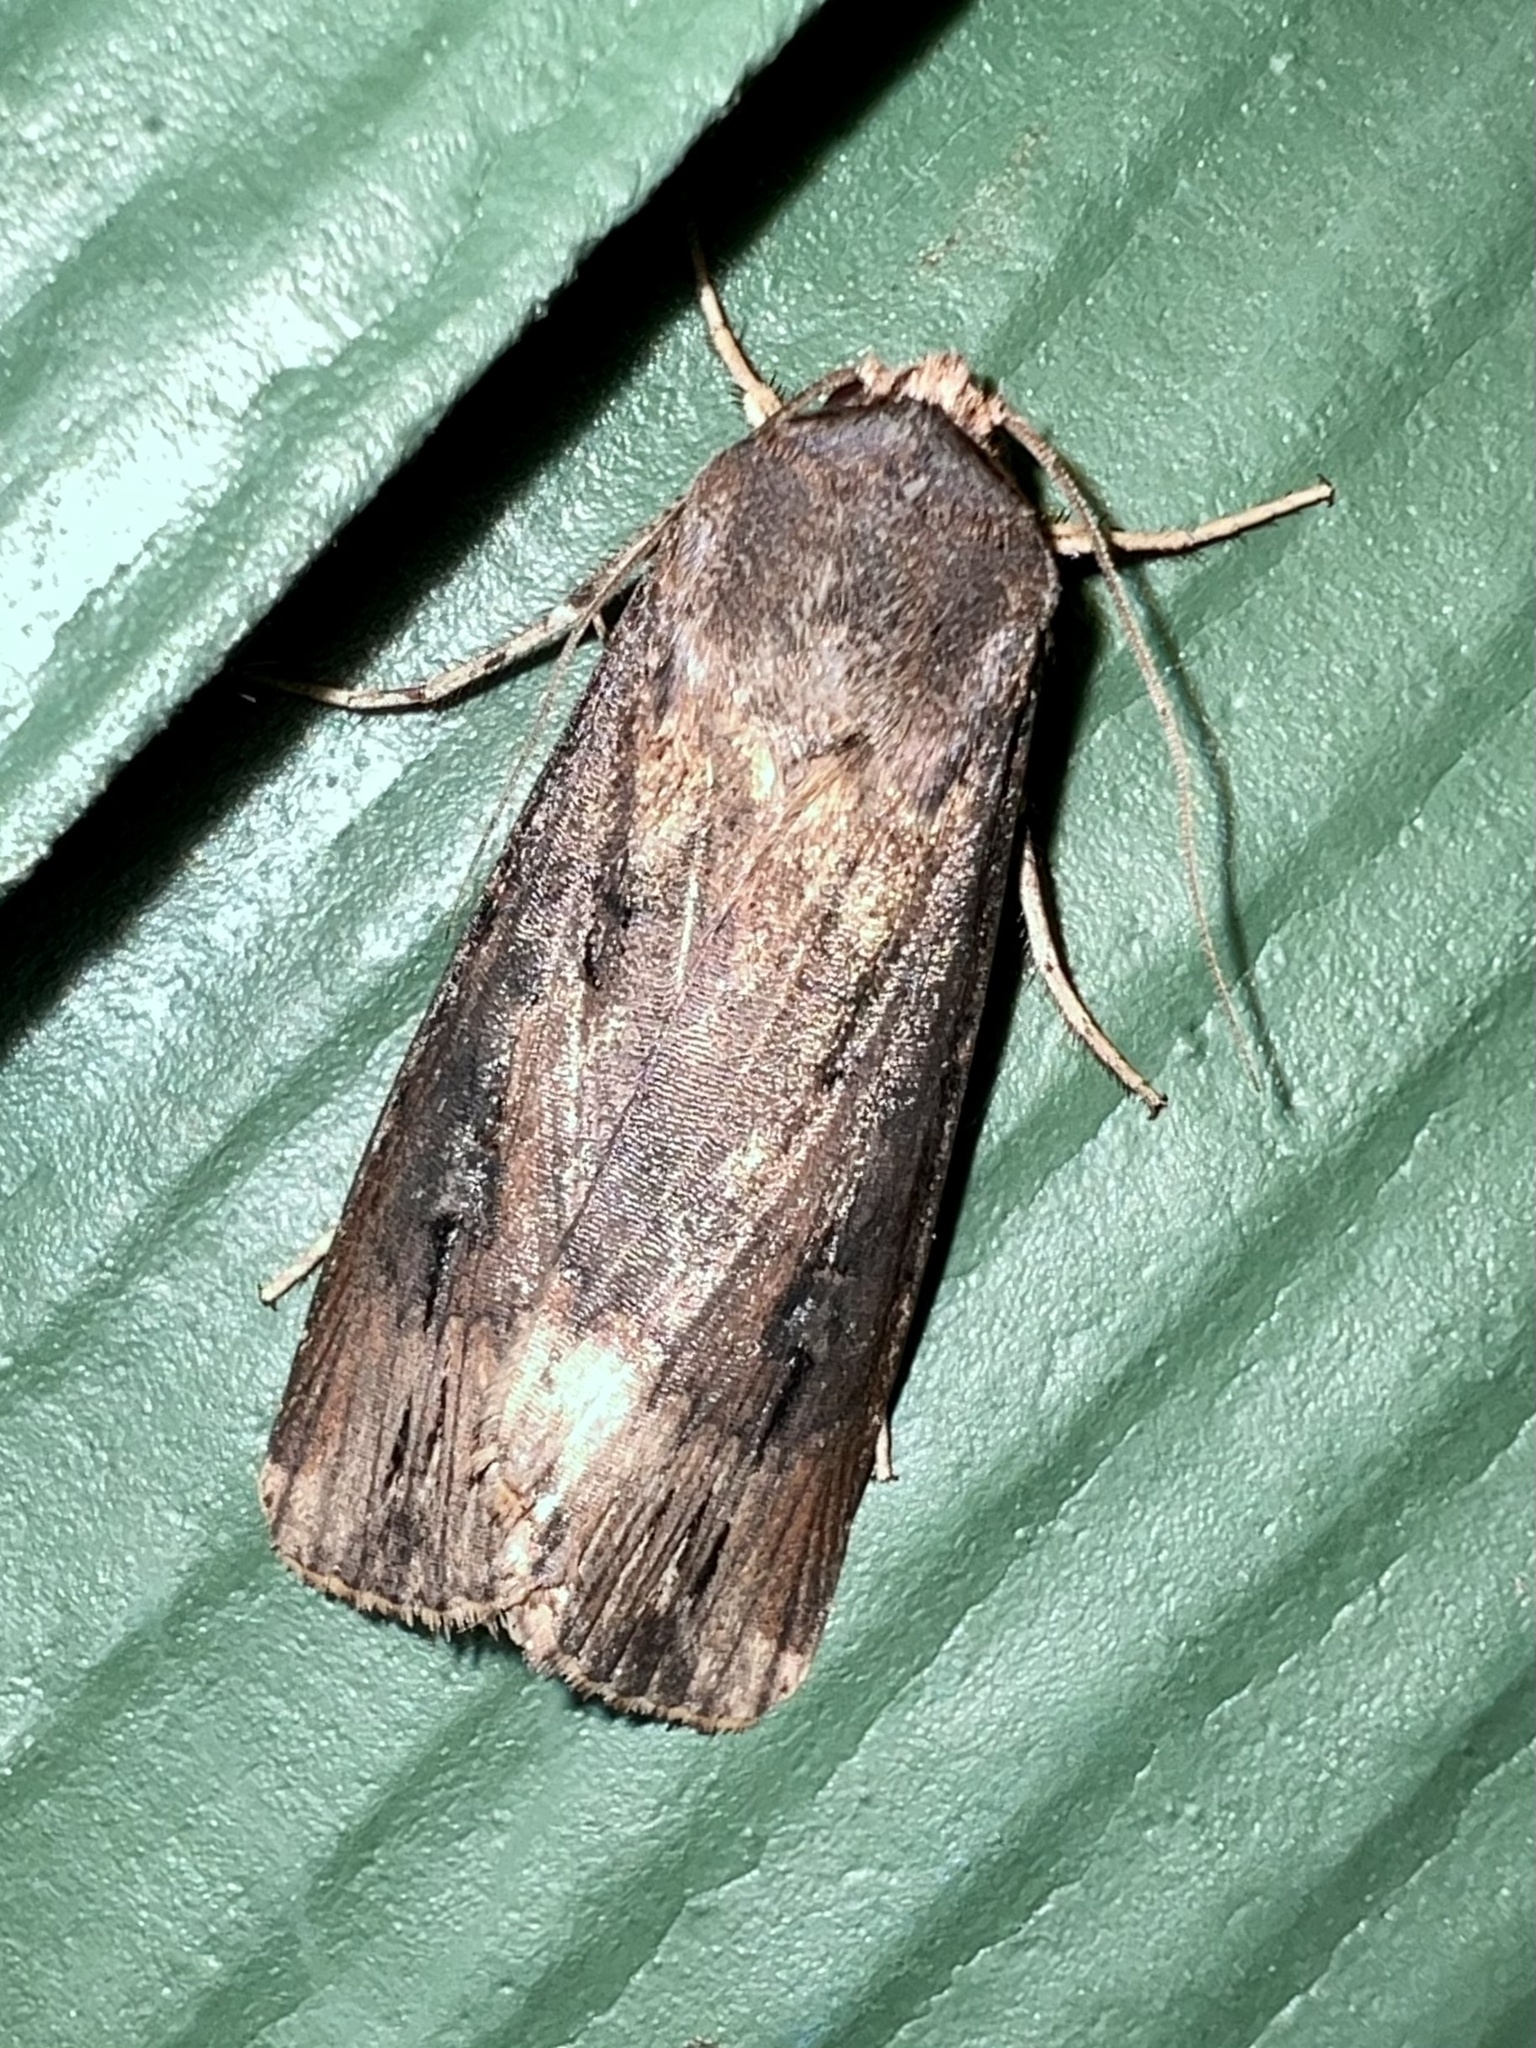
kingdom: Animalia
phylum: Arthropoda
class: Insecta
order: Lepidoptera
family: Noctuidae
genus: Agrotis
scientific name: Agrotis ipsilon
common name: Dark sword-grass
